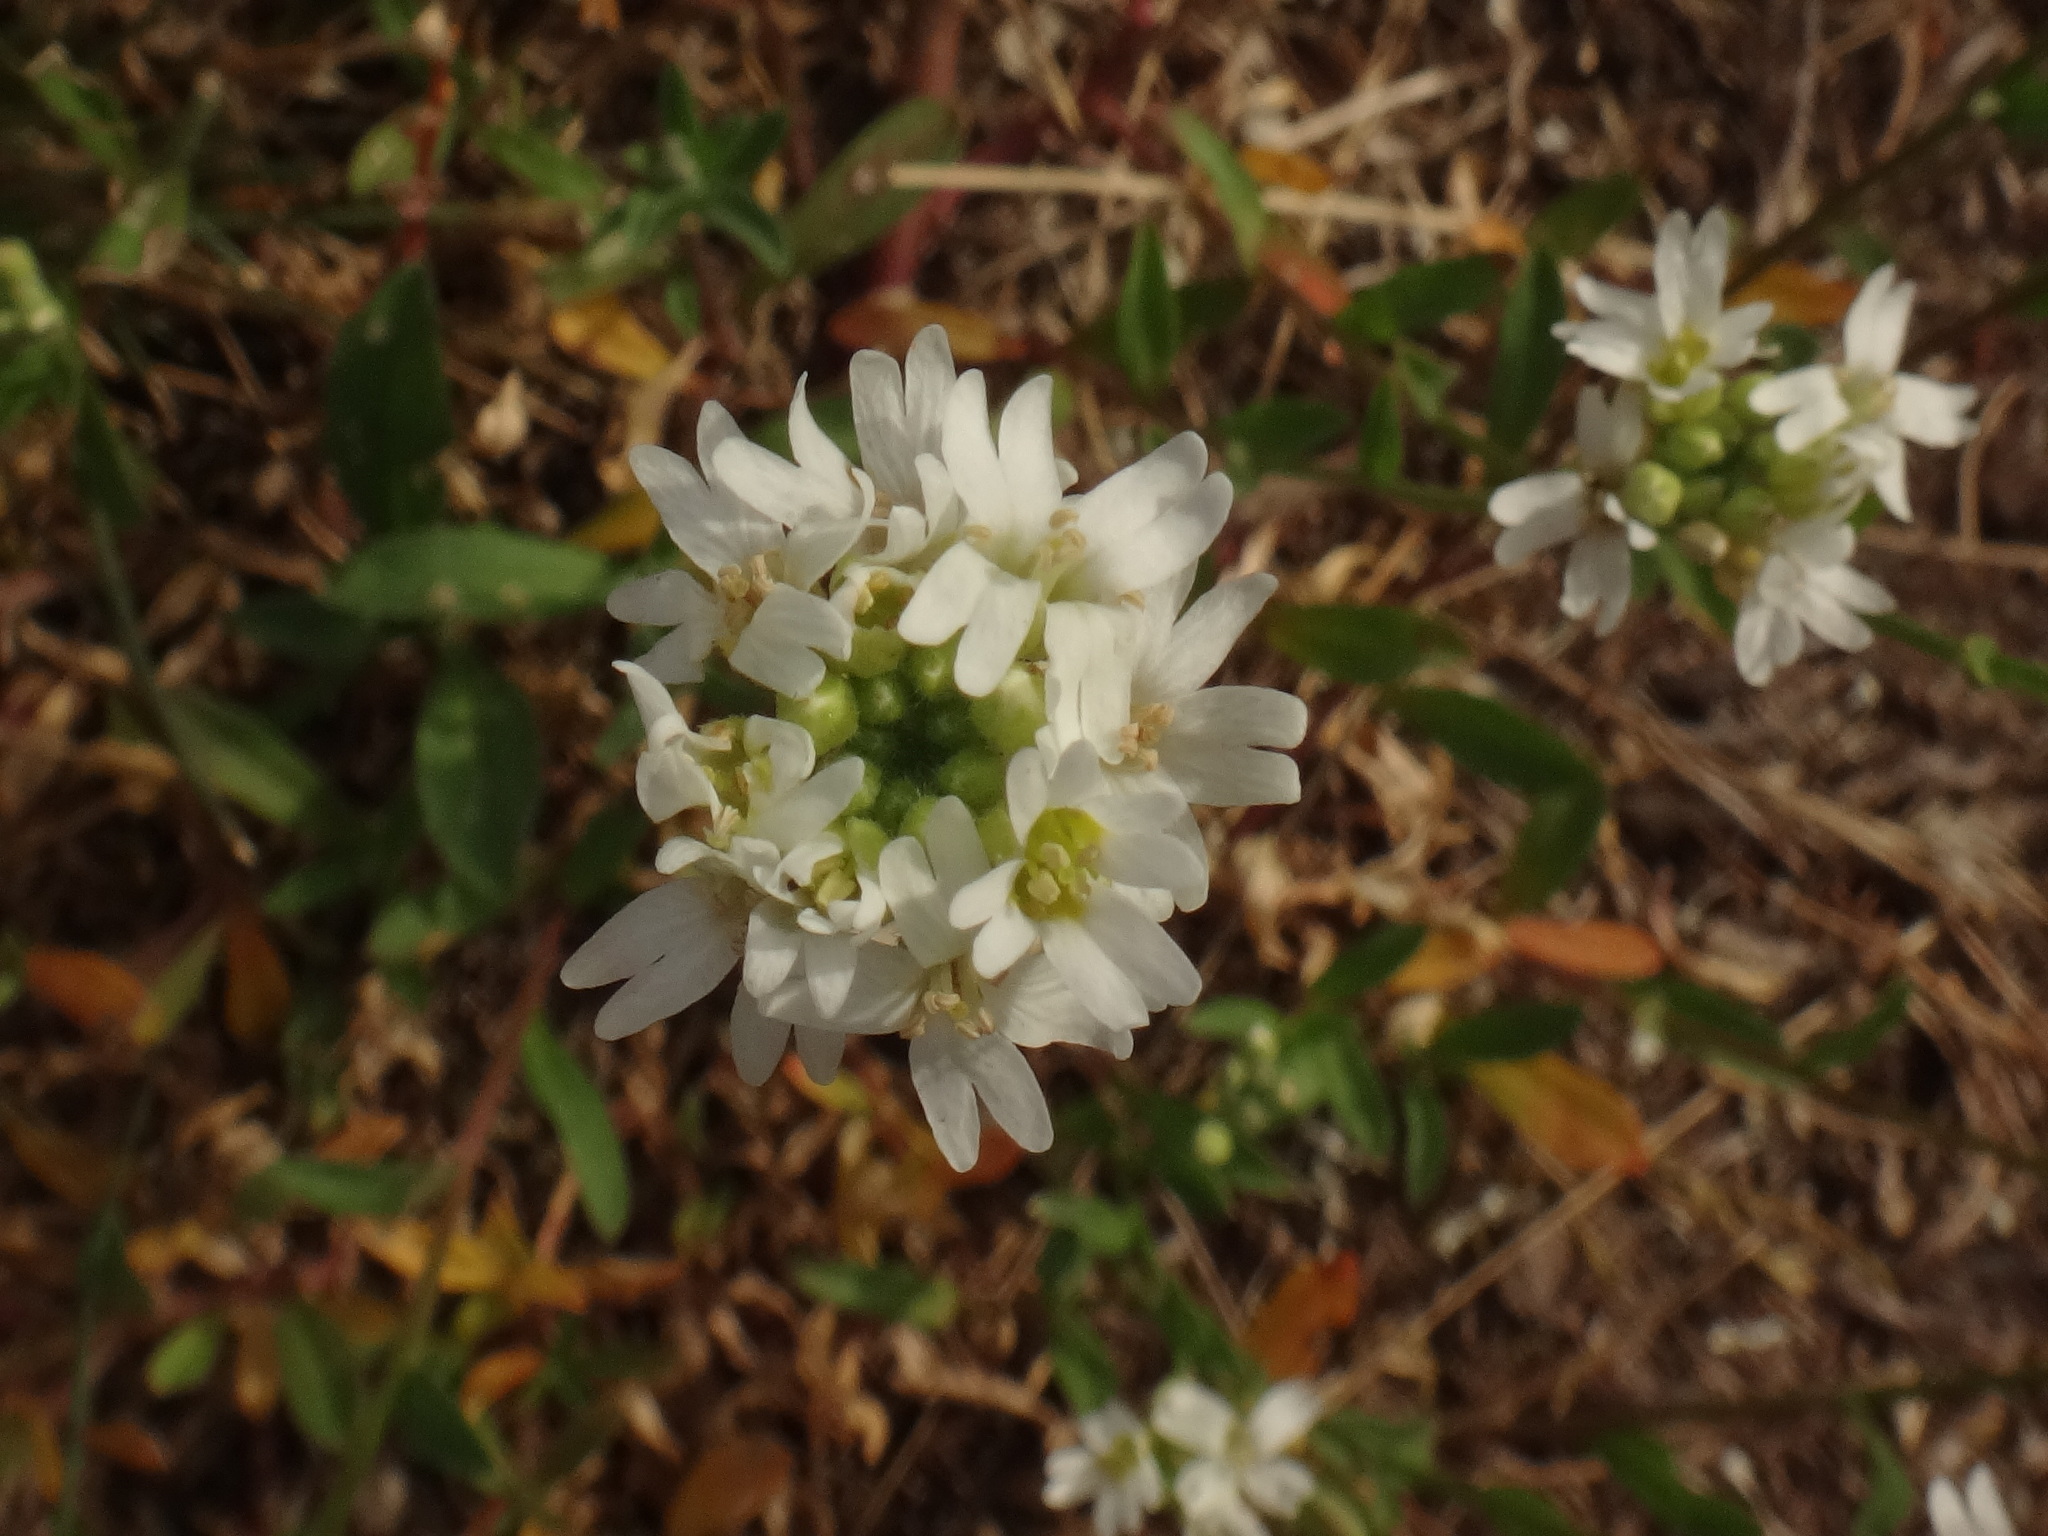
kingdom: Plantae
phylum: Tracheophyta
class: Magnoliopsida
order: Brassicales
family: Brassicaceae
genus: Berteroa
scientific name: Berteroa incana
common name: Hoary alison
